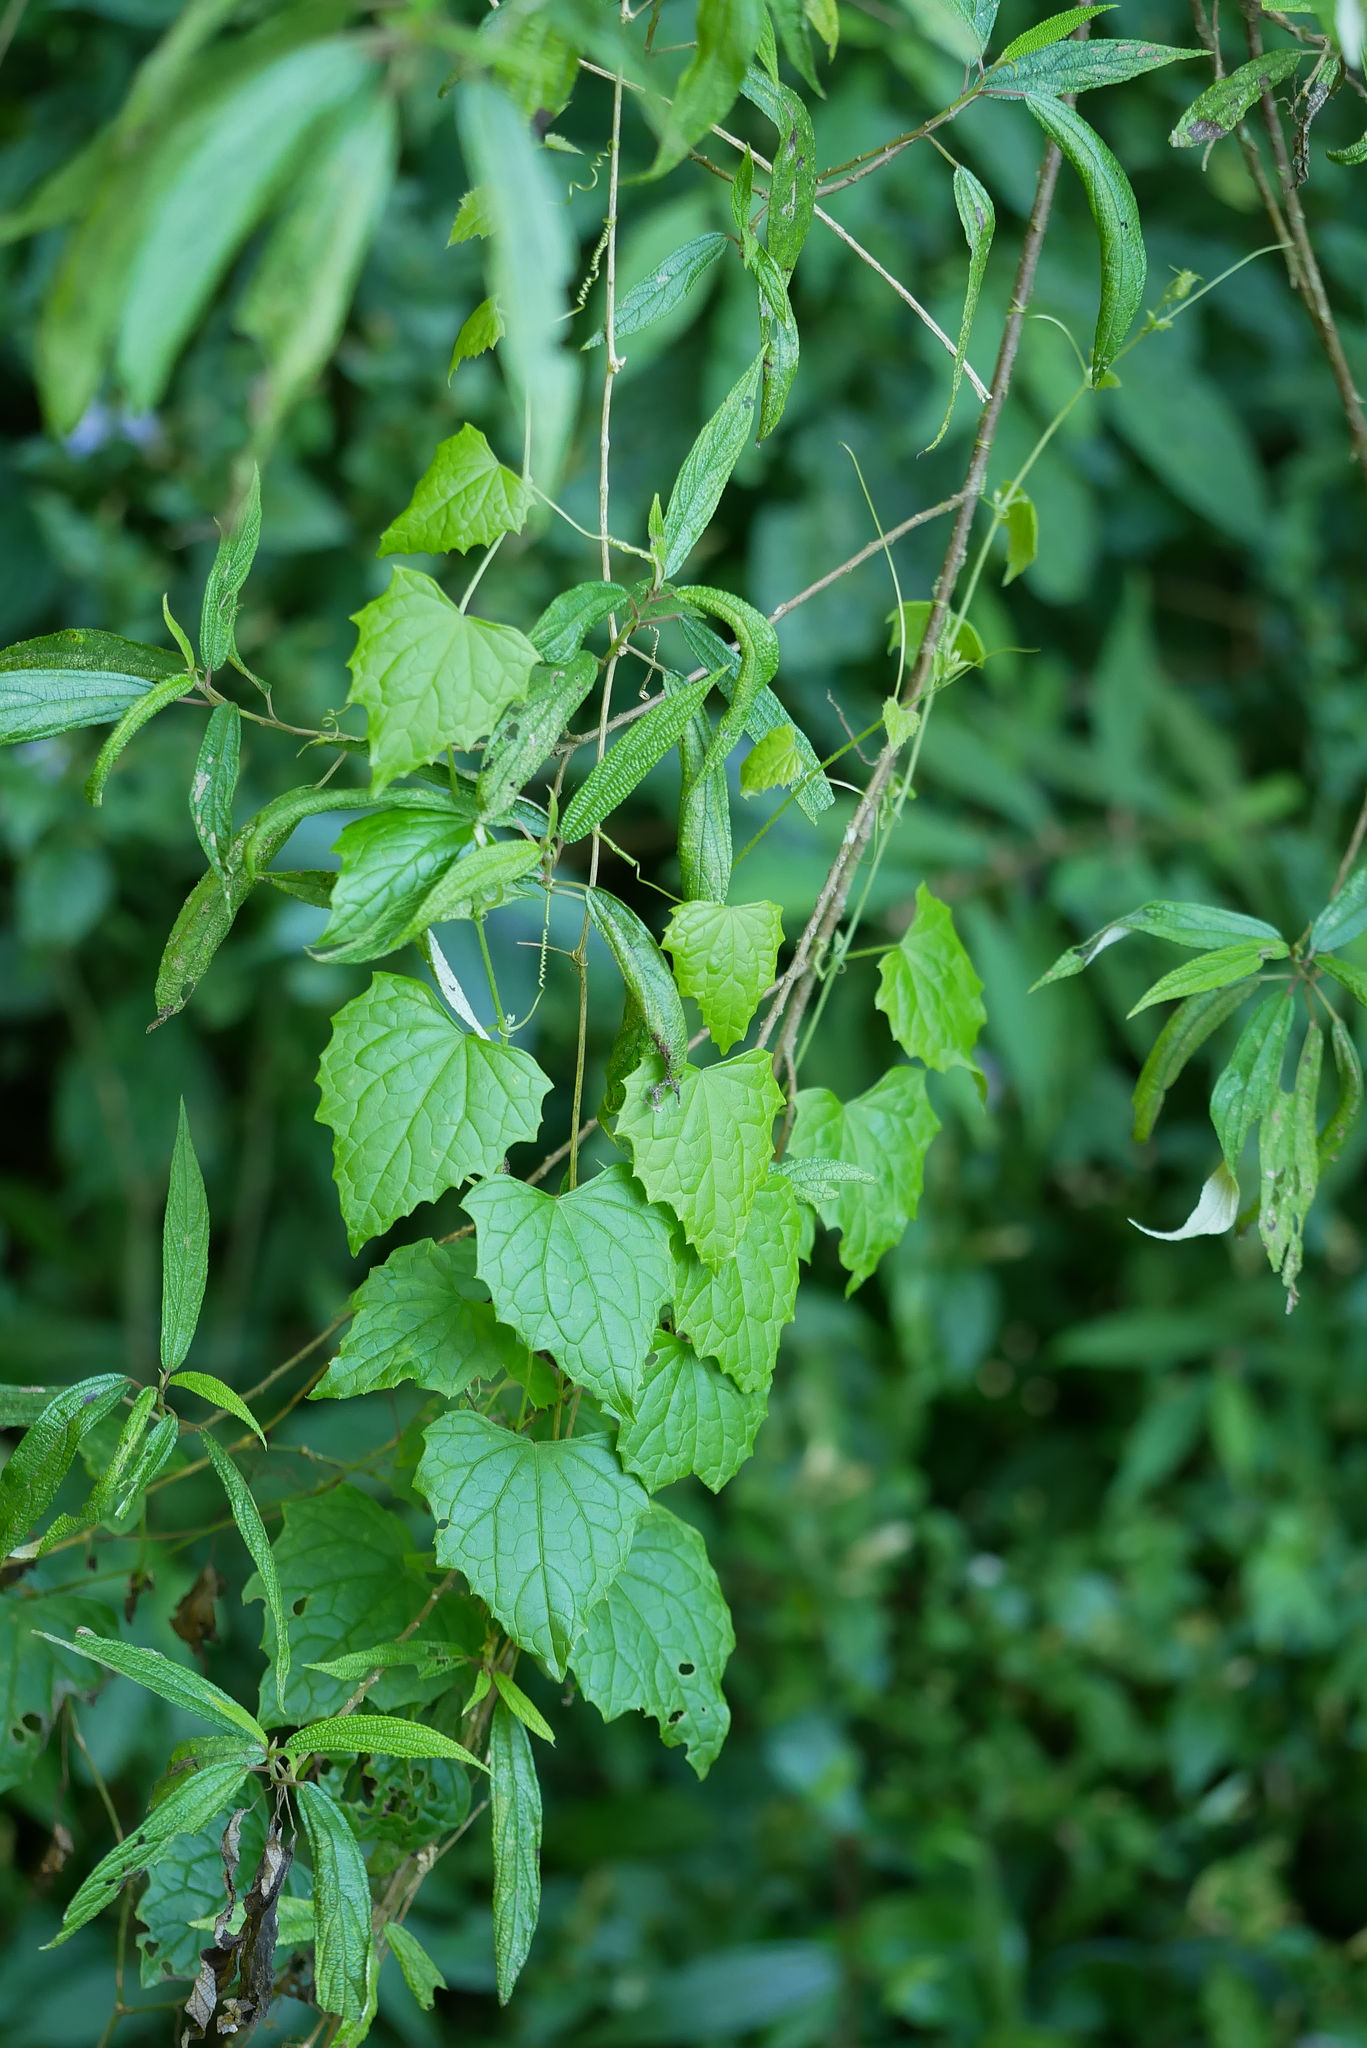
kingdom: Plantae
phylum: Tracheophyta
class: Magnoliopsida
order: Cucurbitales
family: Cucurbitaceae
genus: Zehneria
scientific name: Zehneria guamensis
